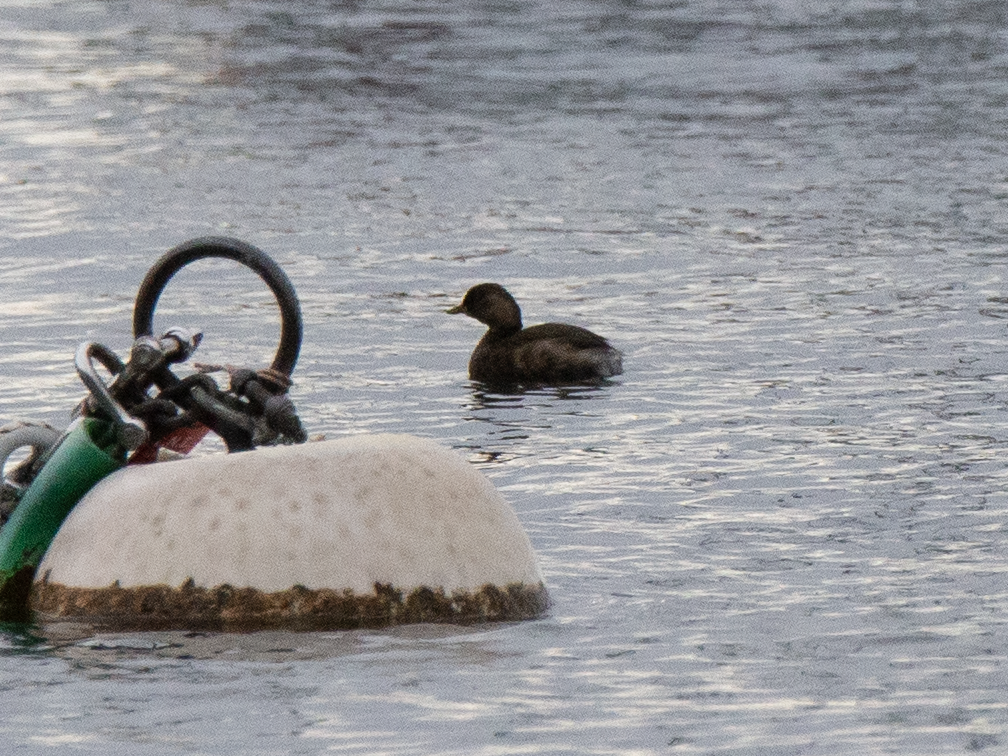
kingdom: Animalia
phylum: Chordata
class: Aves
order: Podicipediformes
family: Podicipedidae
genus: Tachybaptus
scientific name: Tachybaptus ruficollis
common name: Little grebe
